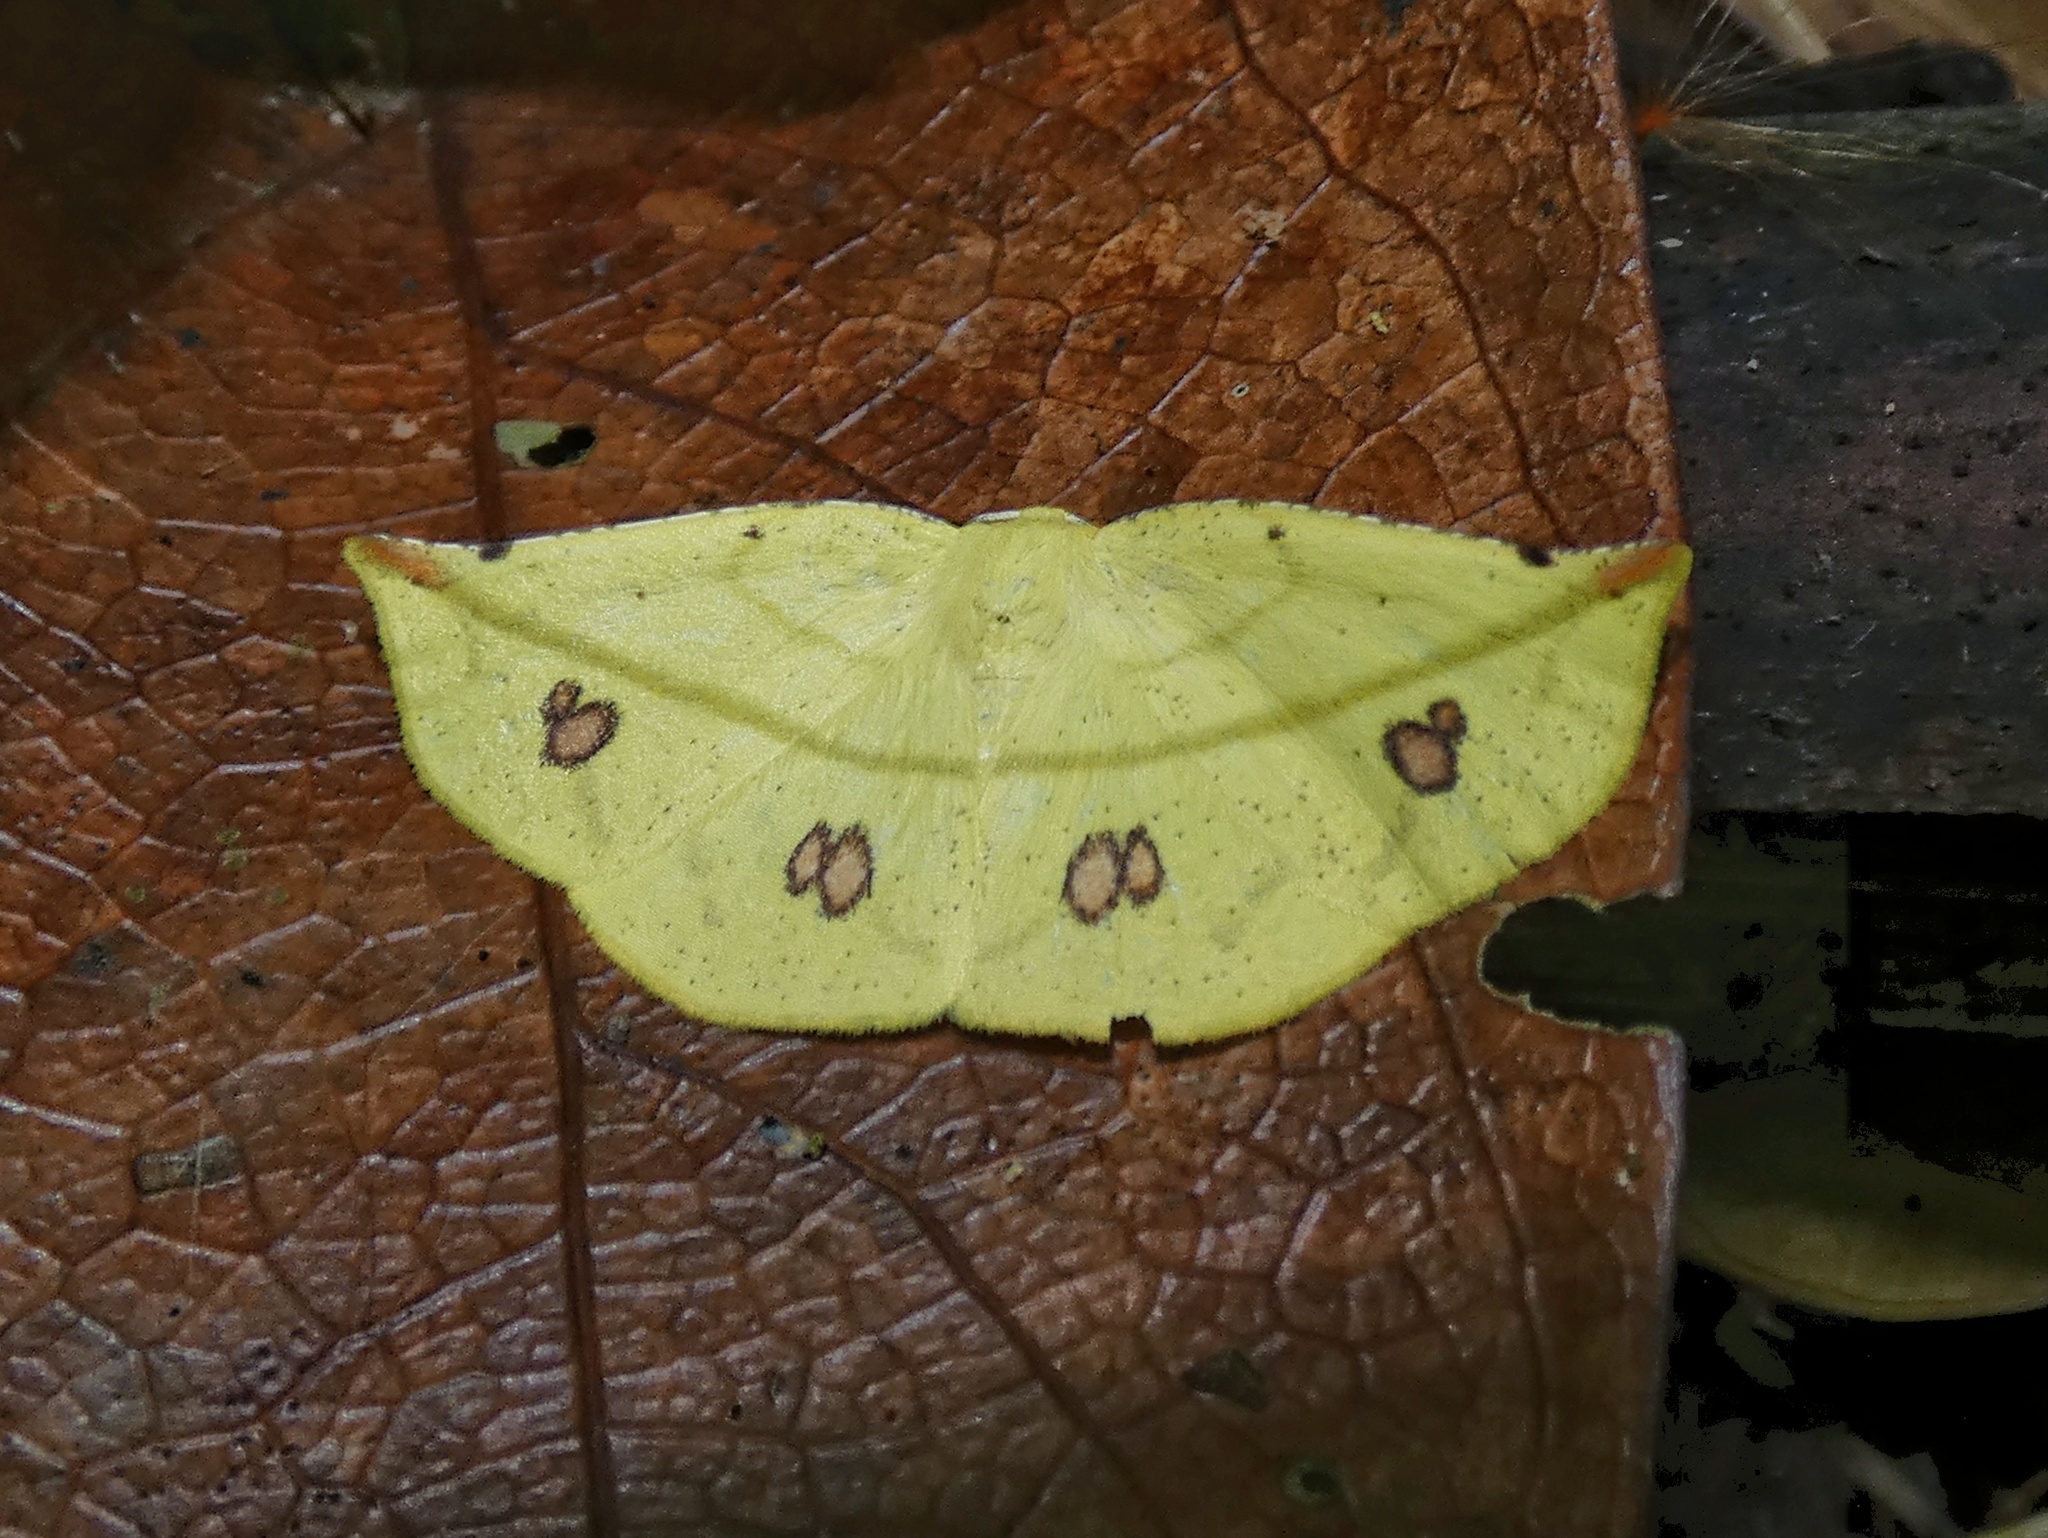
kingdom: Animalia
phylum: Arthropoda
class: Insecta
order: Lepidoptera
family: Geometridae
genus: Cratoptera
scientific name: Cratoptera primularia
